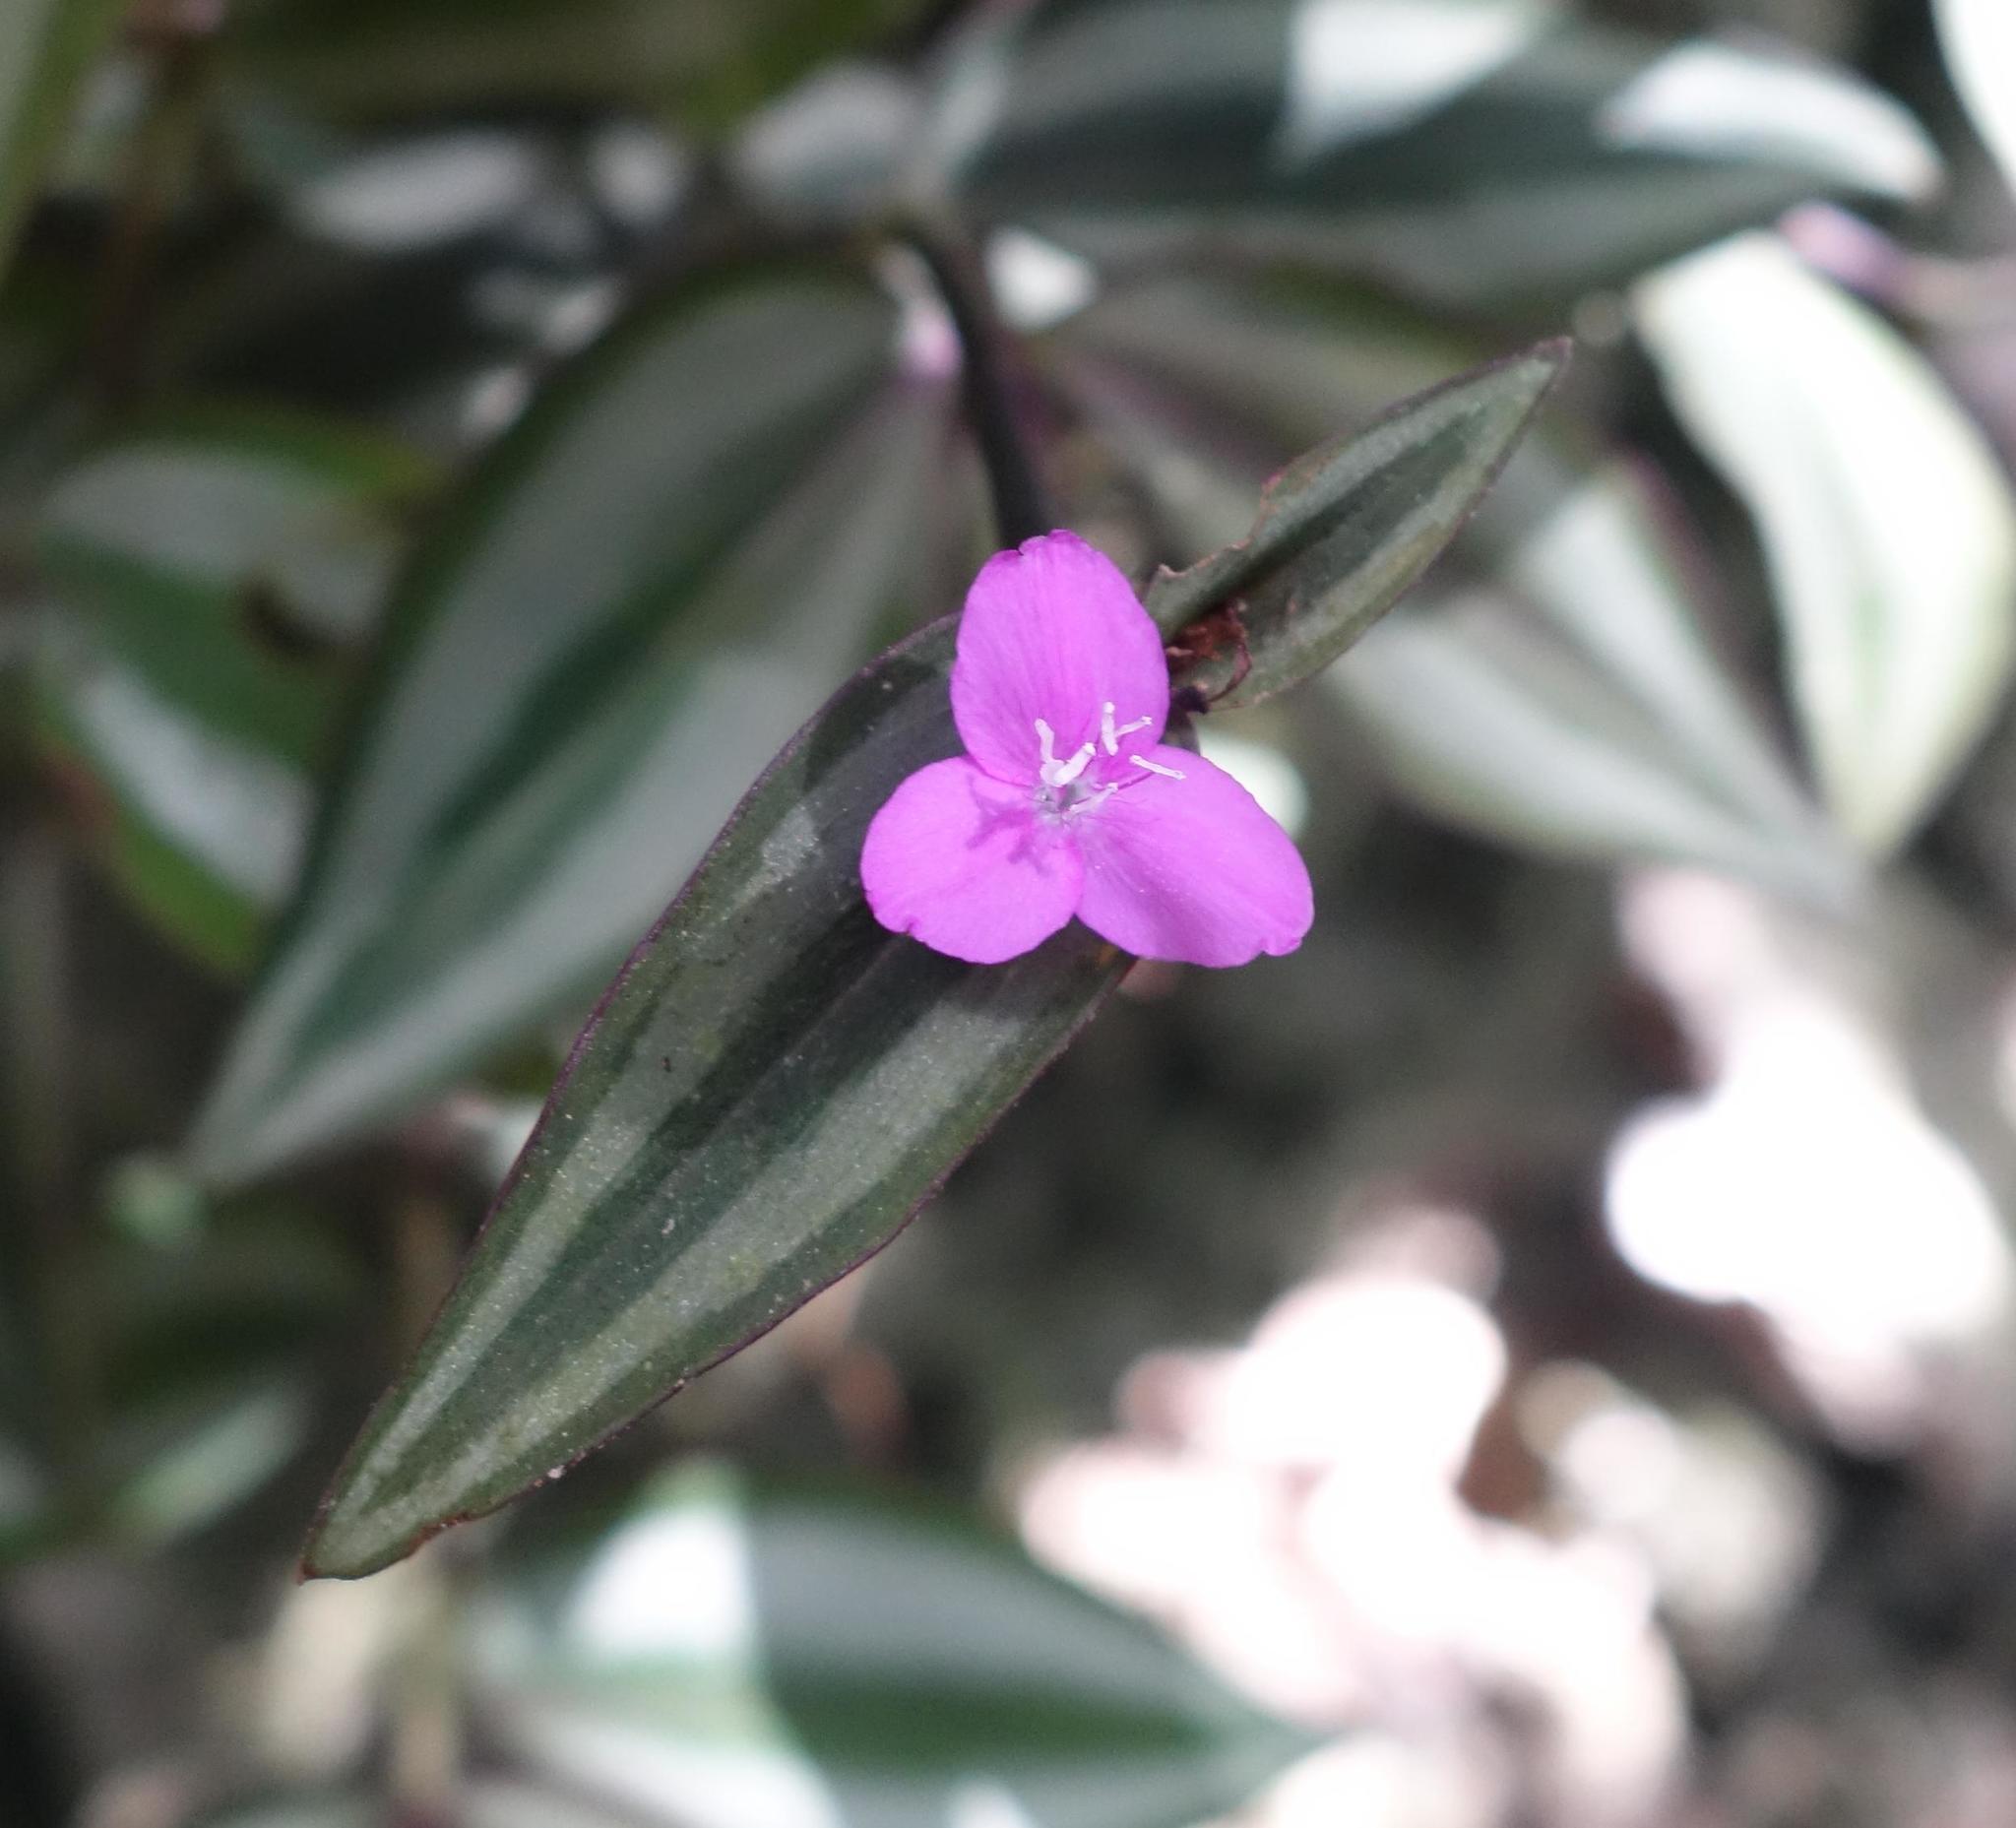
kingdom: Plantae
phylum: Tracheophyta
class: Liliopsida
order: Commelinales
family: Commelinaceae
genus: Tradescantia
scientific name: Tradescantia zebrina
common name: Inchplant
